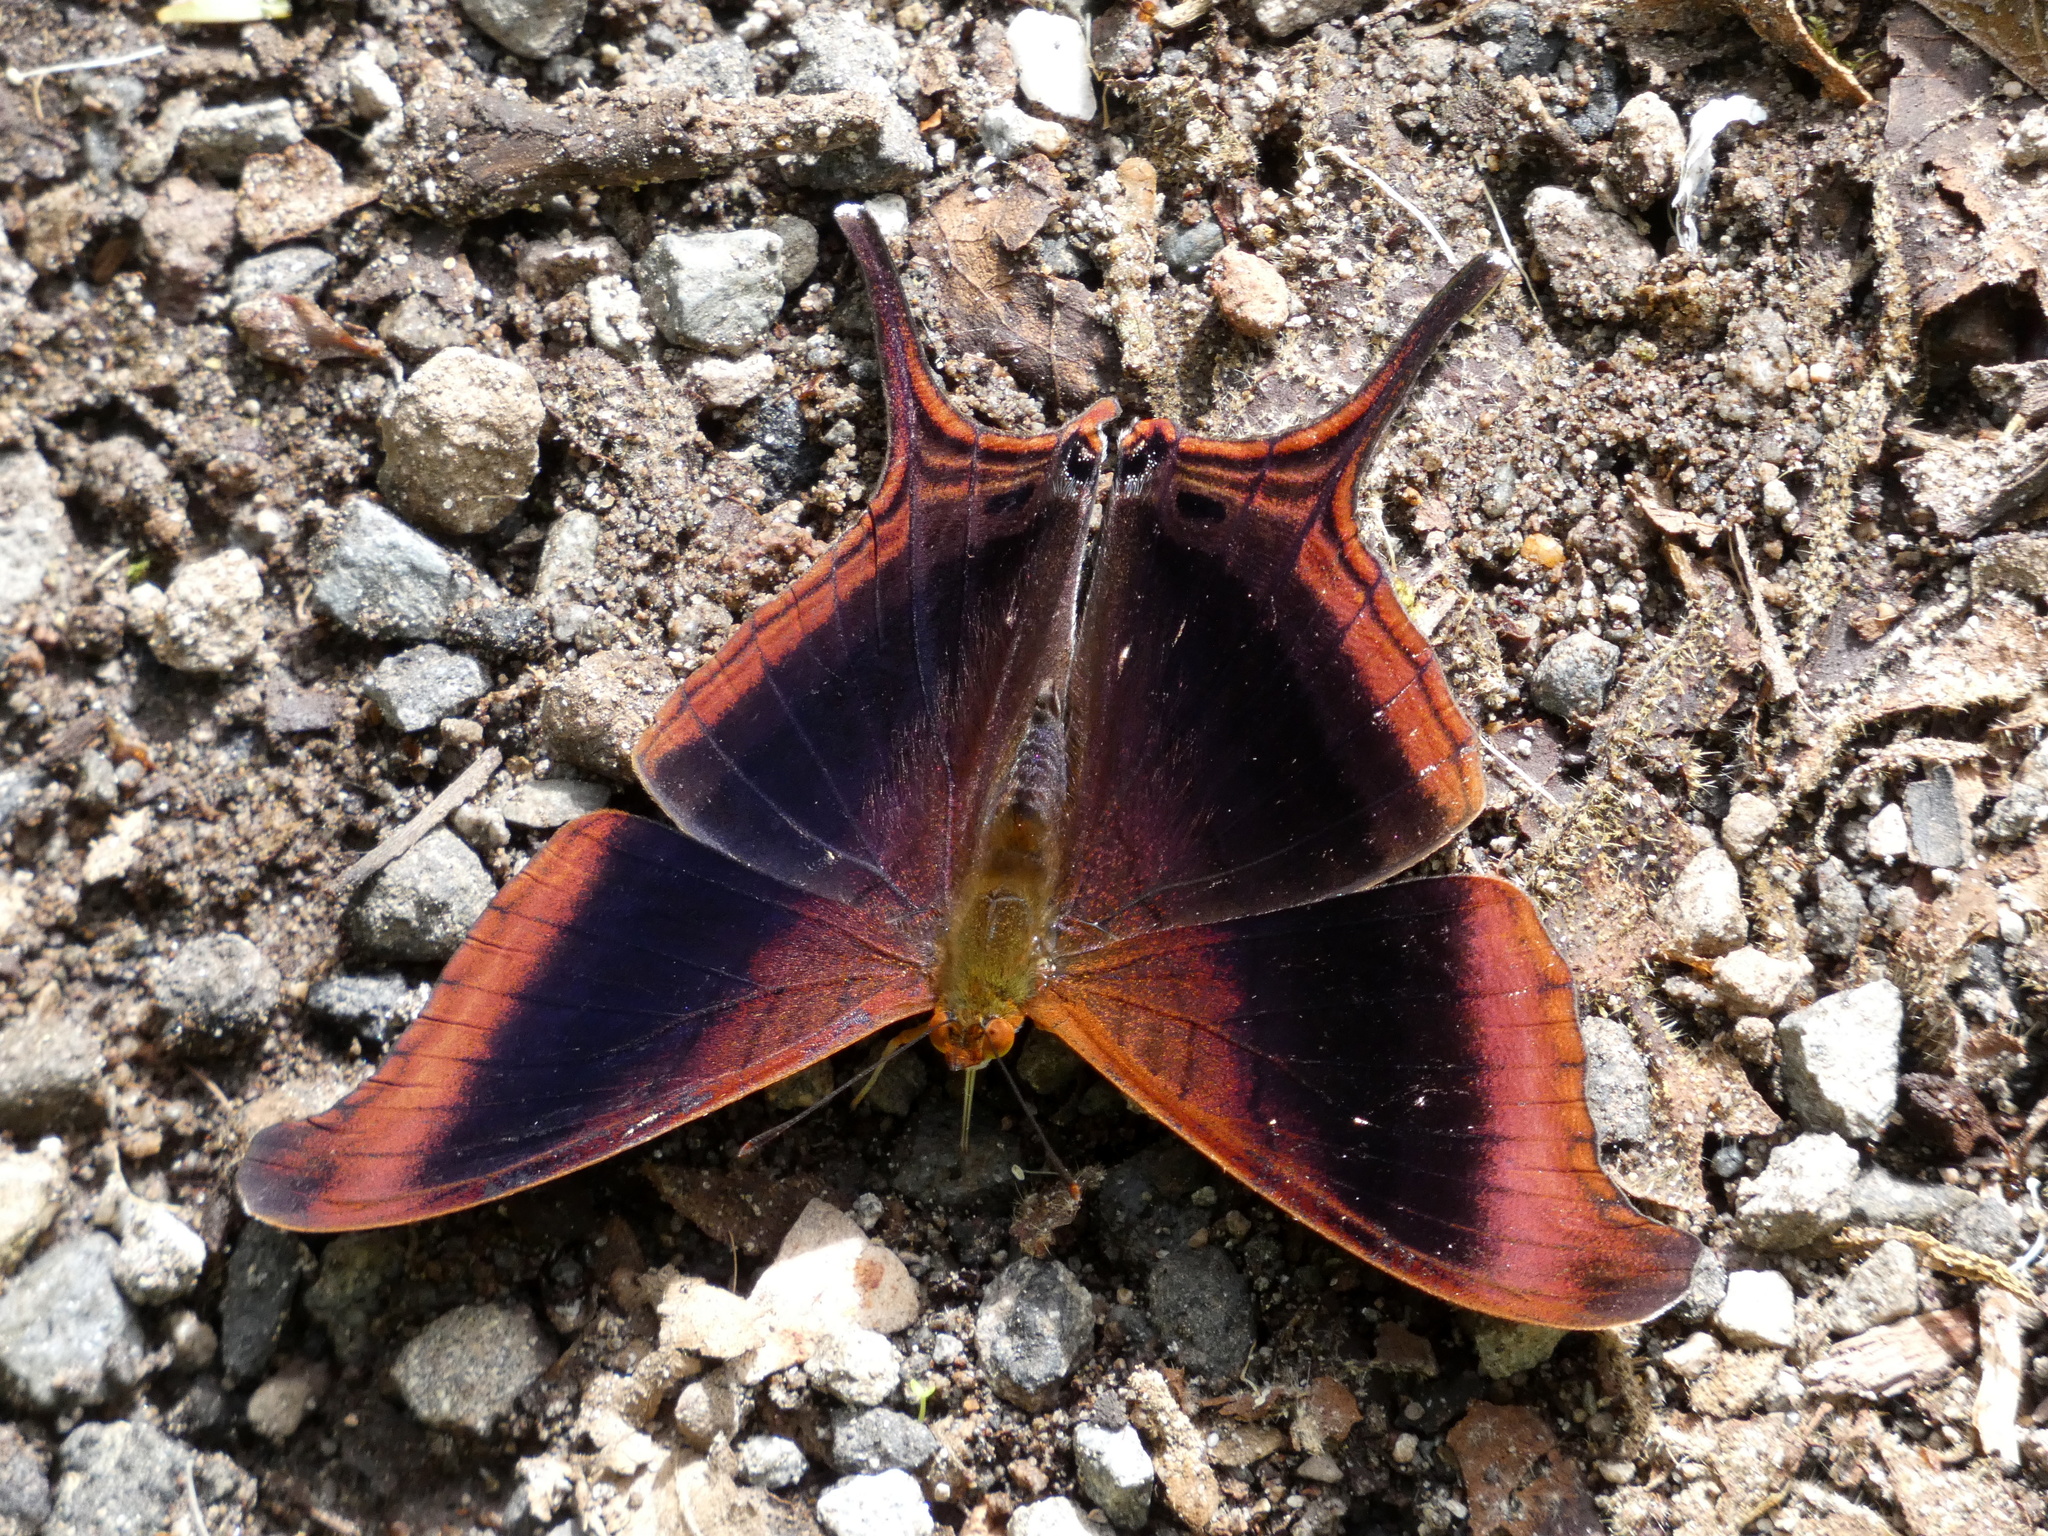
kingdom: Animalia
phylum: Arthropoda
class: Insecta
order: Lepidoptera
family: Nymphalidae
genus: Marpesia
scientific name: Marpesia zerynthia
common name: Waiter daggerwing
